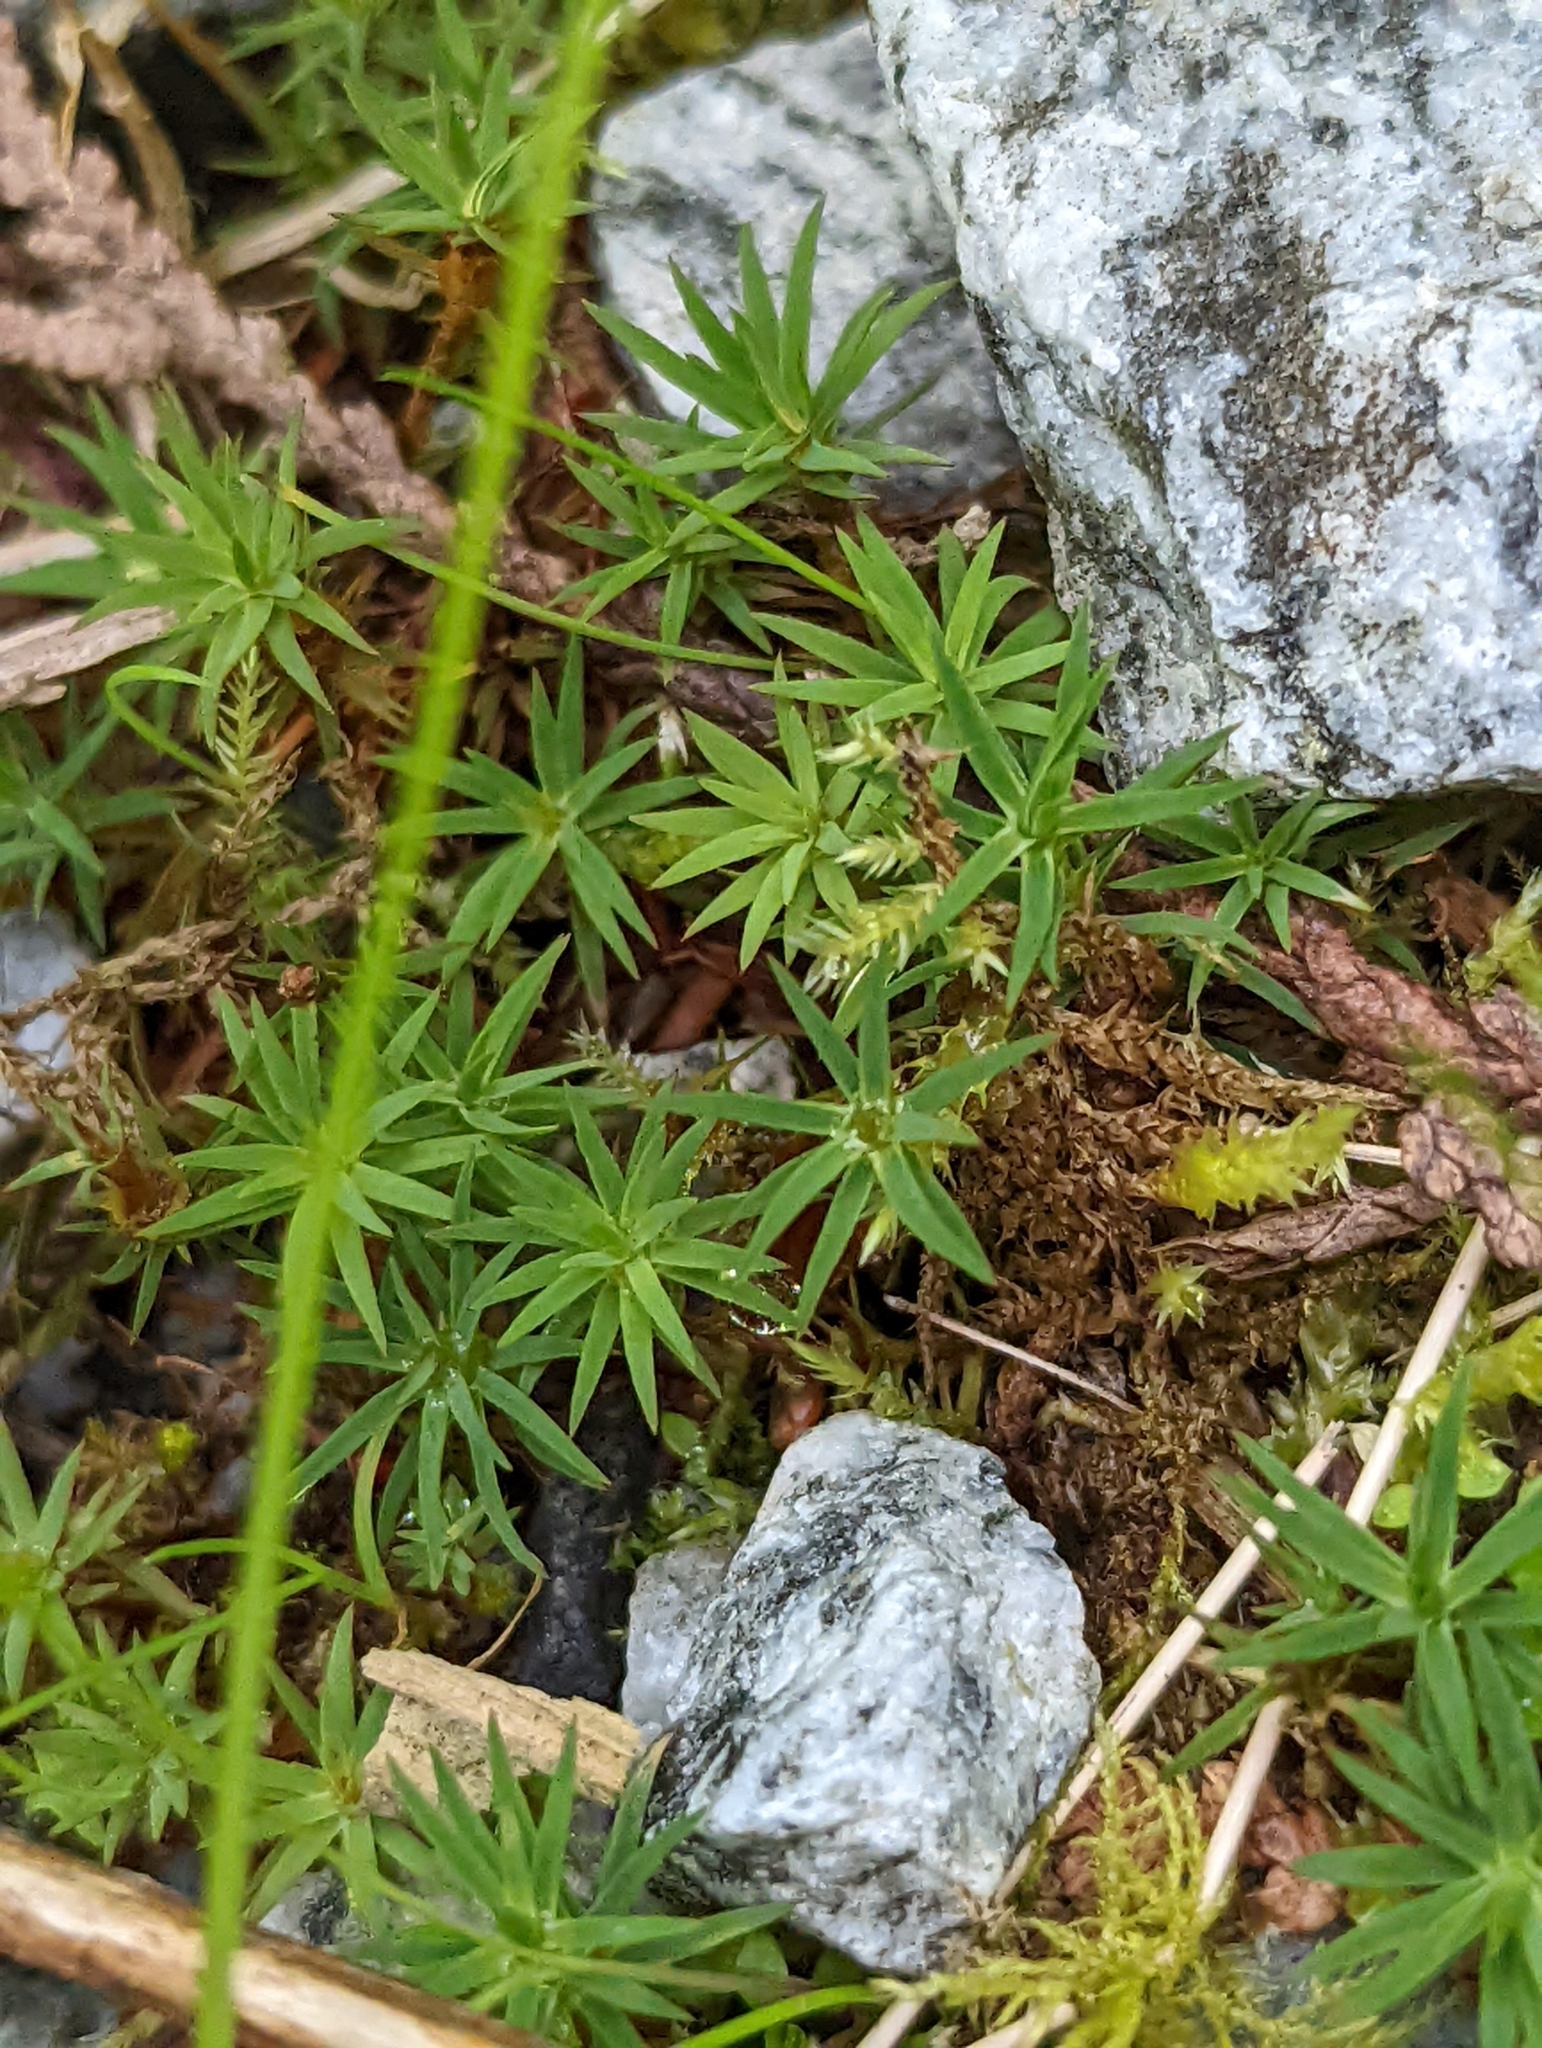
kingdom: Plantae
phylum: Bryophyta
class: Polytrichopsida
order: Polytrichales
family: Polytrichaceae
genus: Pogonatum
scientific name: Pogonatum urnigerum
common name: Urn hair moss
